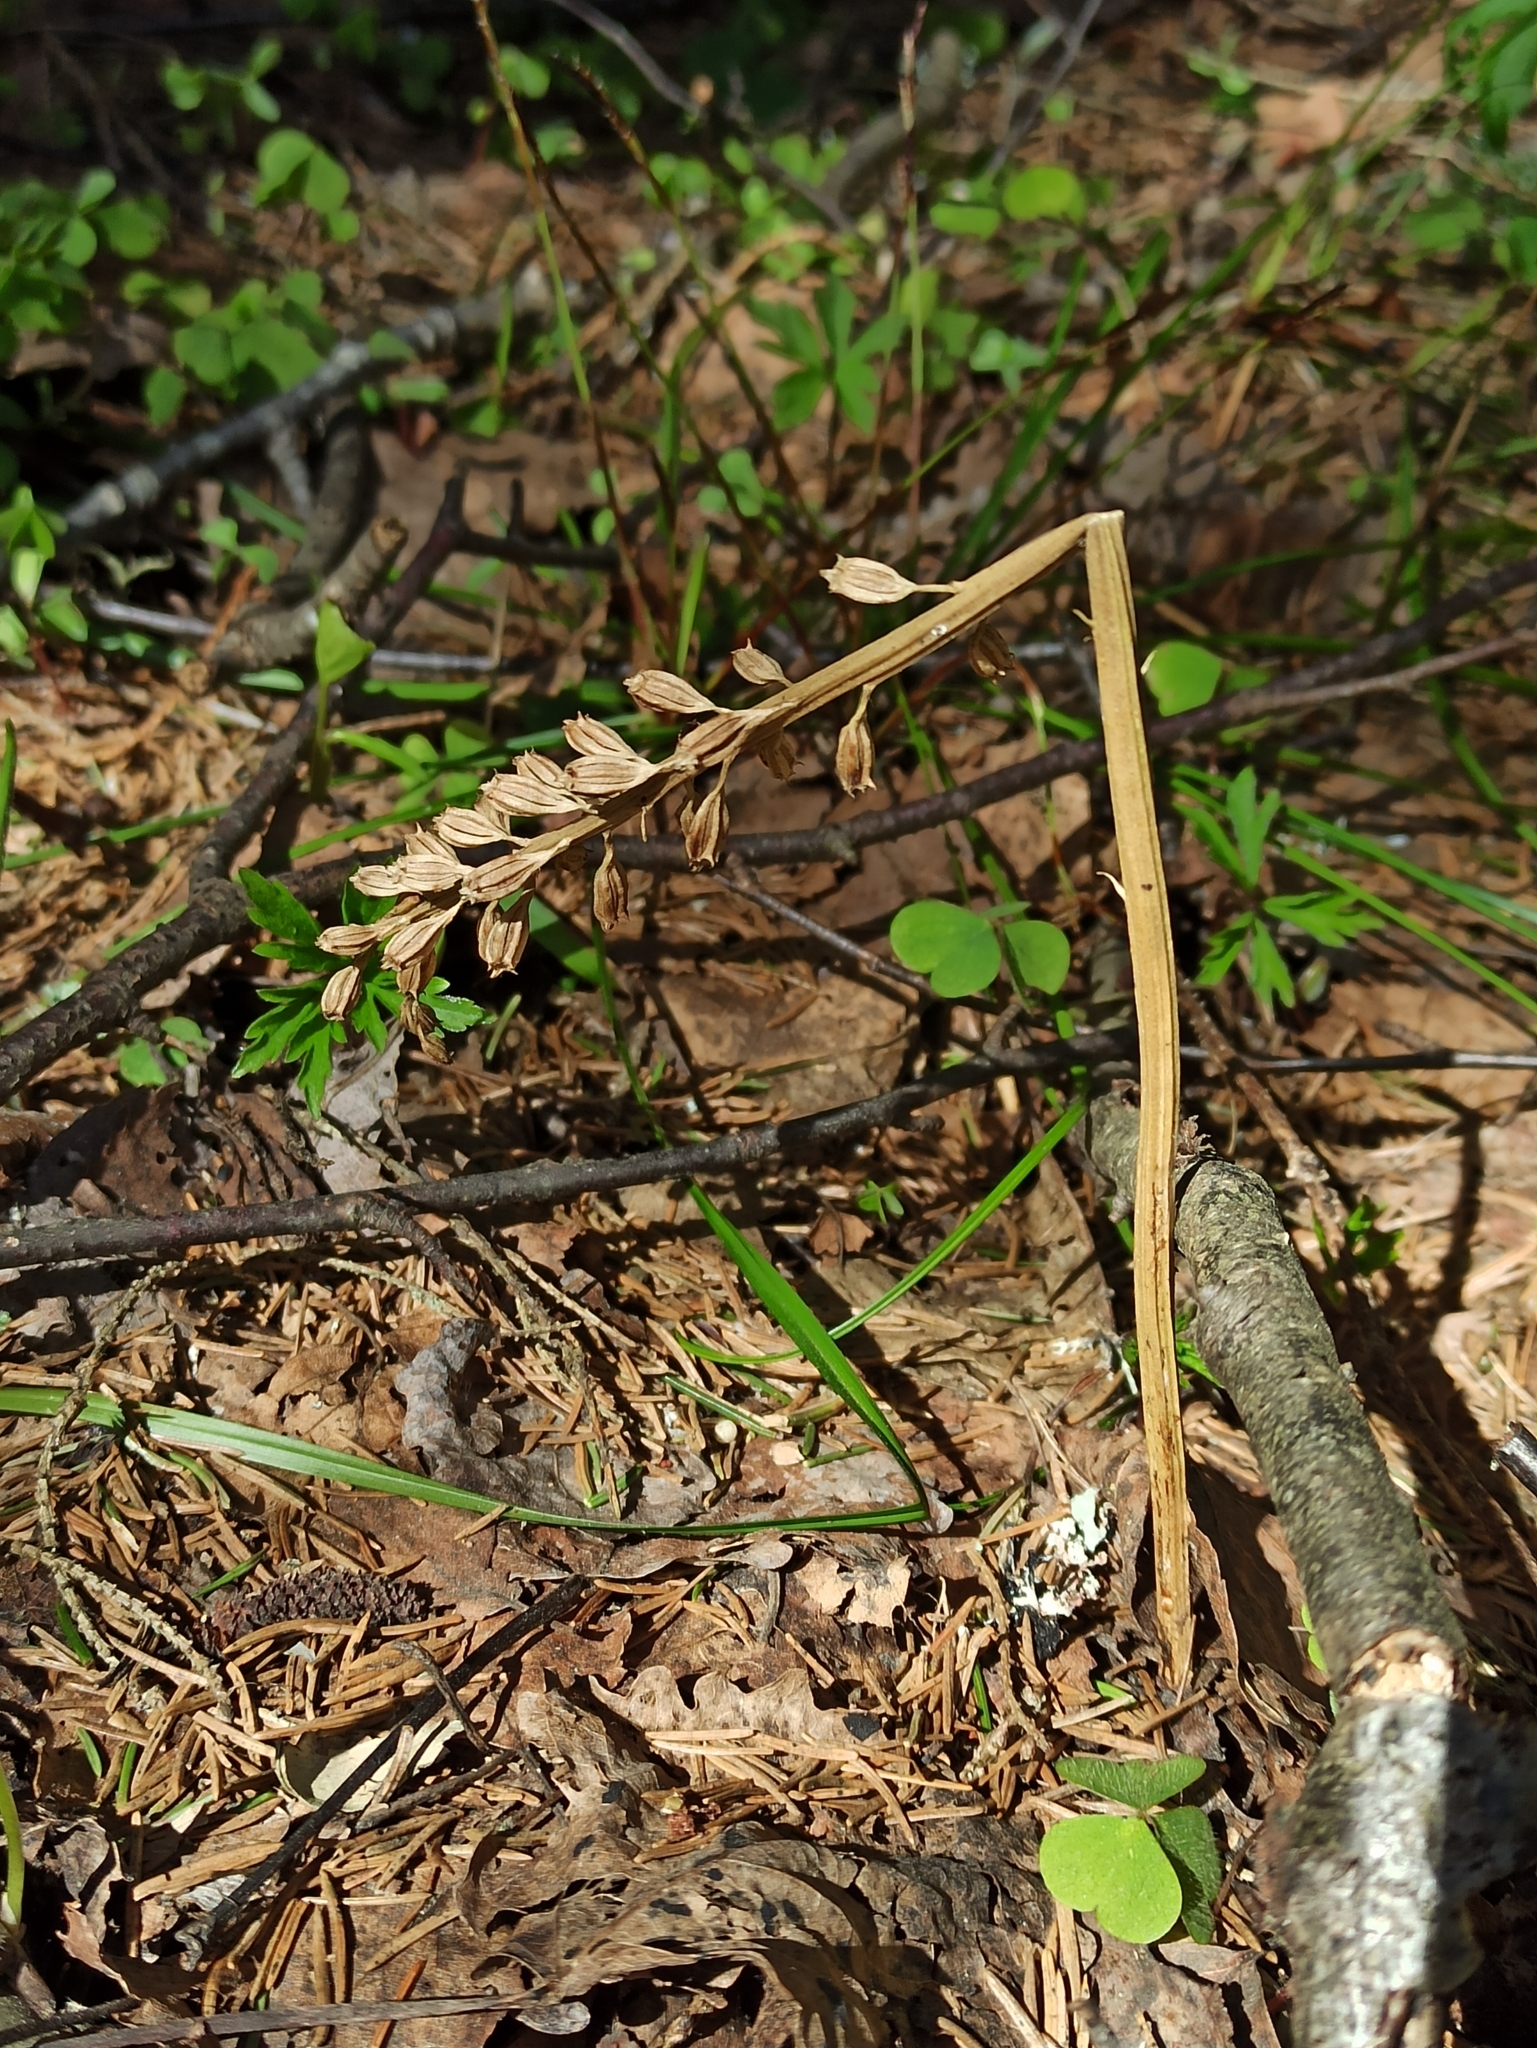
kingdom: Plantae
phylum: Tracheophyta
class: Liliopsida
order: Asparagales
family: Orchidaceae
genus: Neottia
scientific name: Neottia nidus-avis
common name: Bird's-nest orchid
